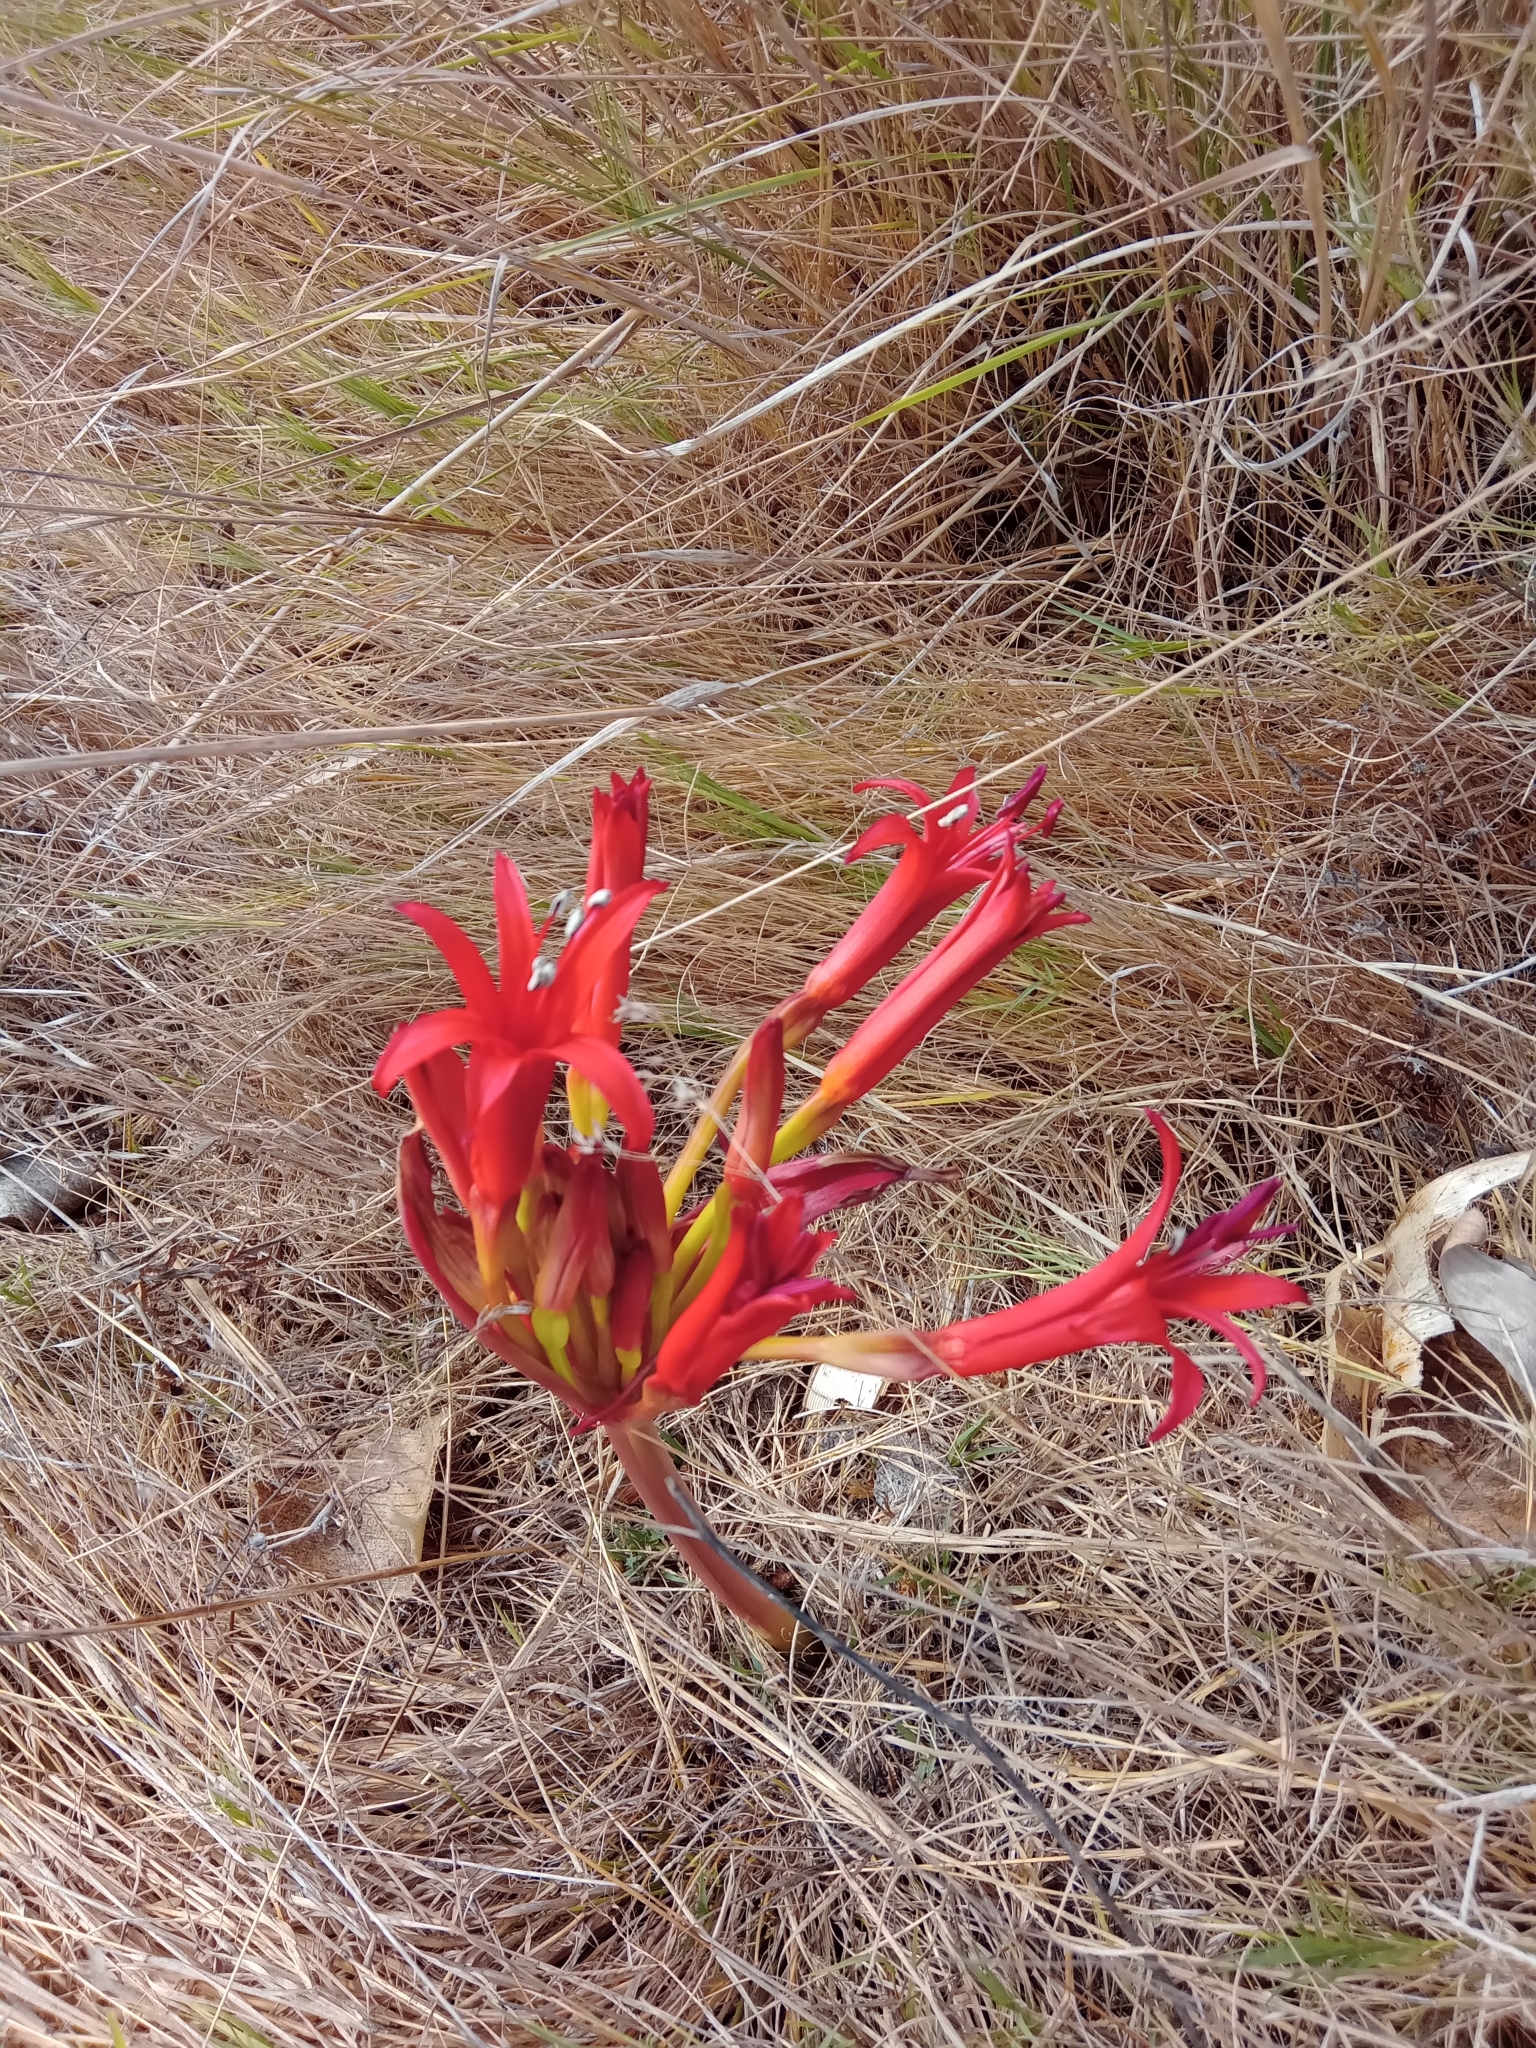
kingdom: Plantae
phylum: Tracheophyta
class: Liliopsida
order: Asparagales
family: Amaryllidaceae
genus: Brunsvigia
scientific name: Brunsvigia orientalis
